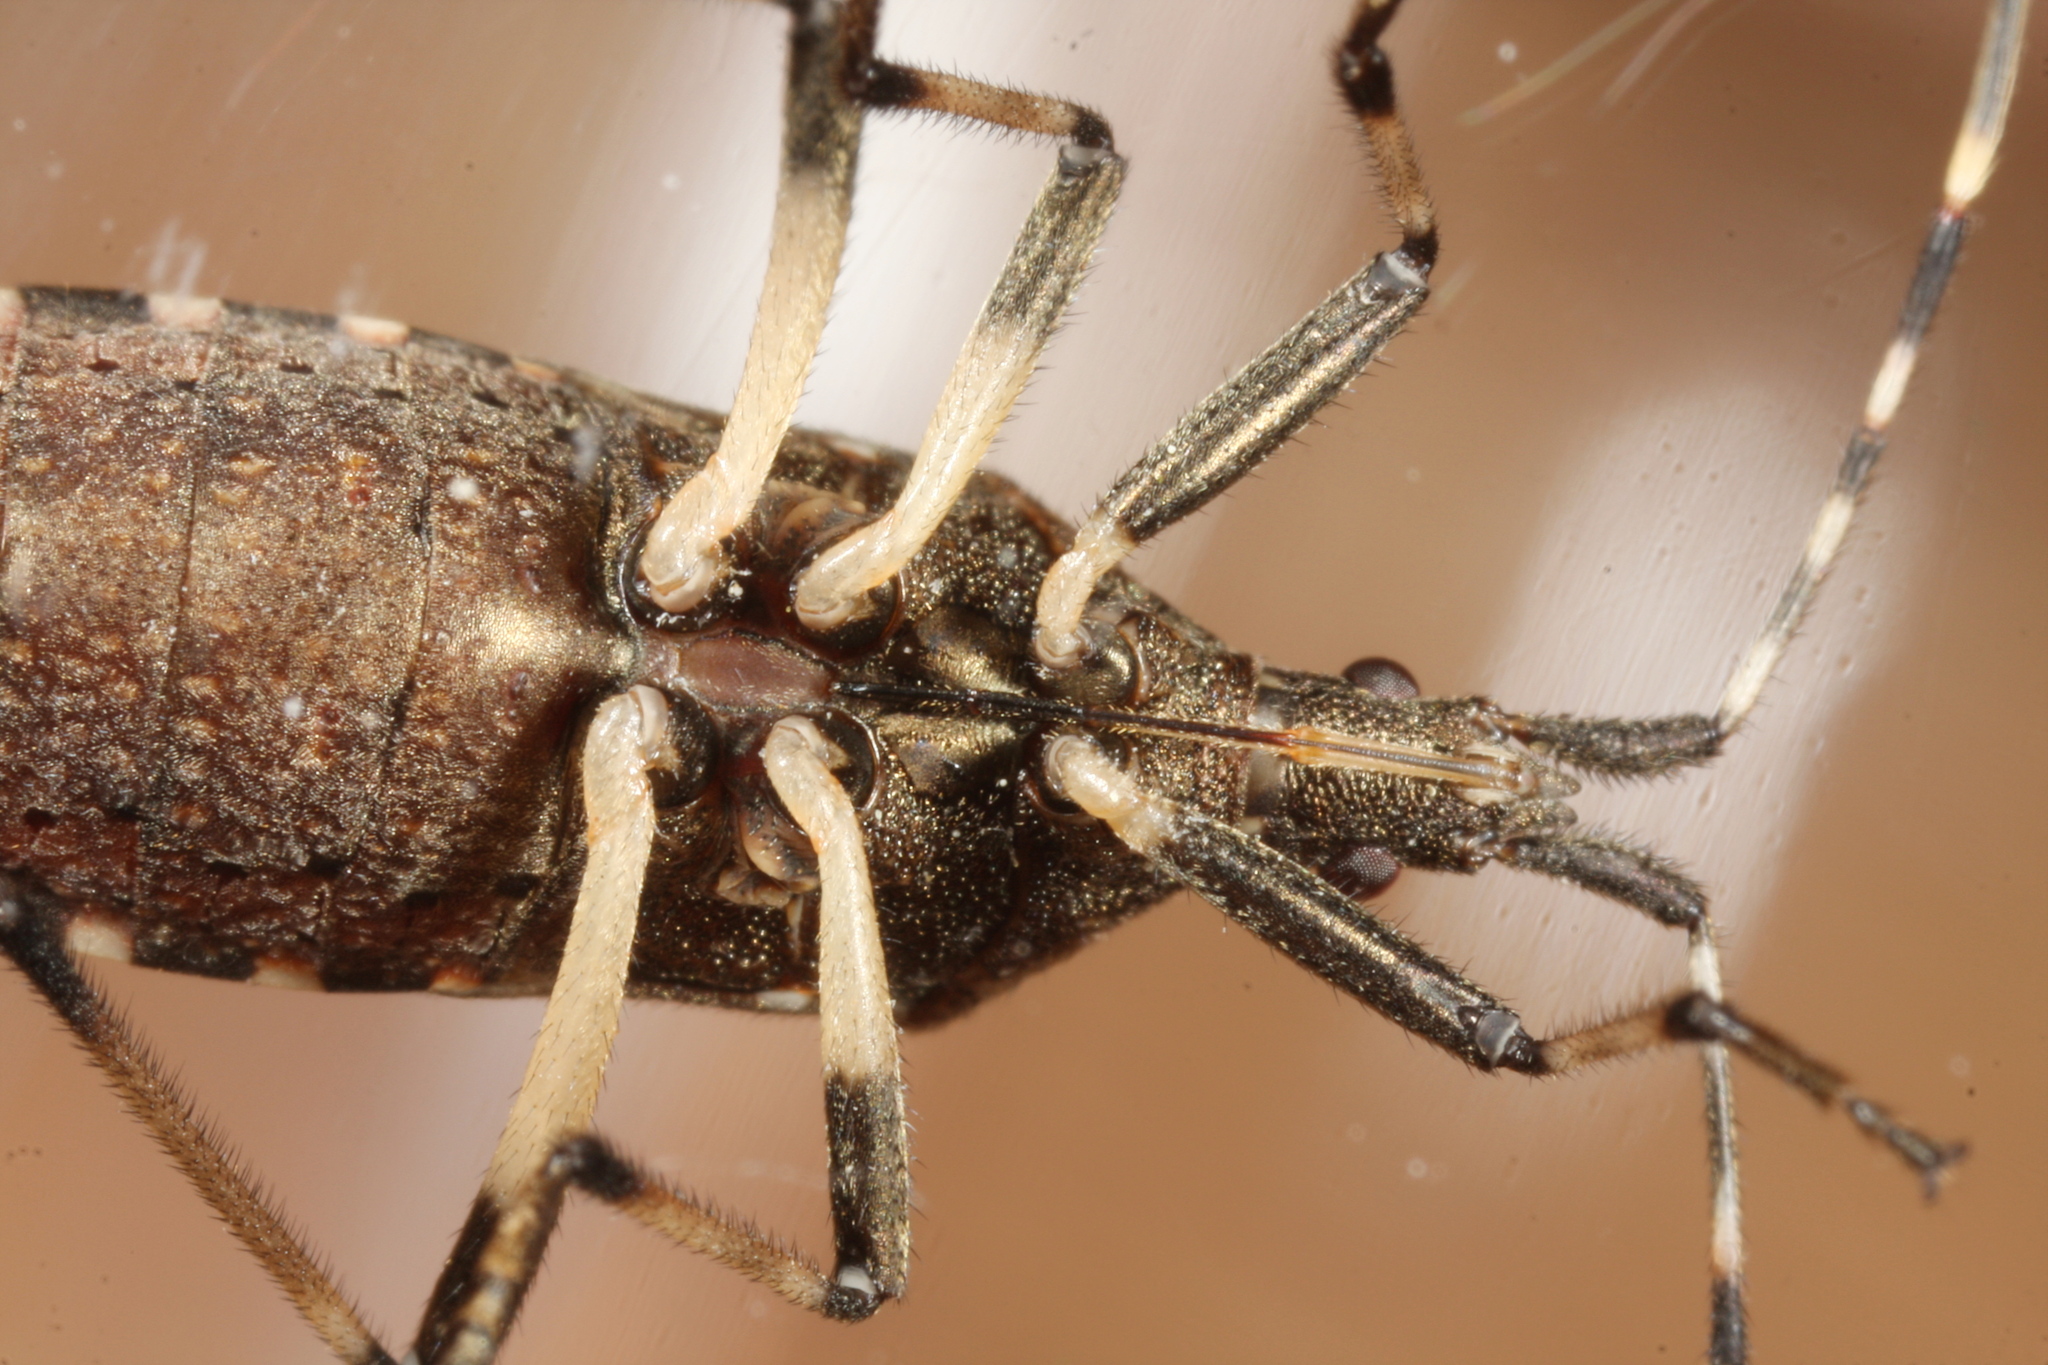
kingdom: Animalia
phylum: Arthropoda
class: Insecta
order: Hemiptera
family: Stenocephalidae
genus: Dicranocephalus
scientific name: Dicranocephalus agilis
